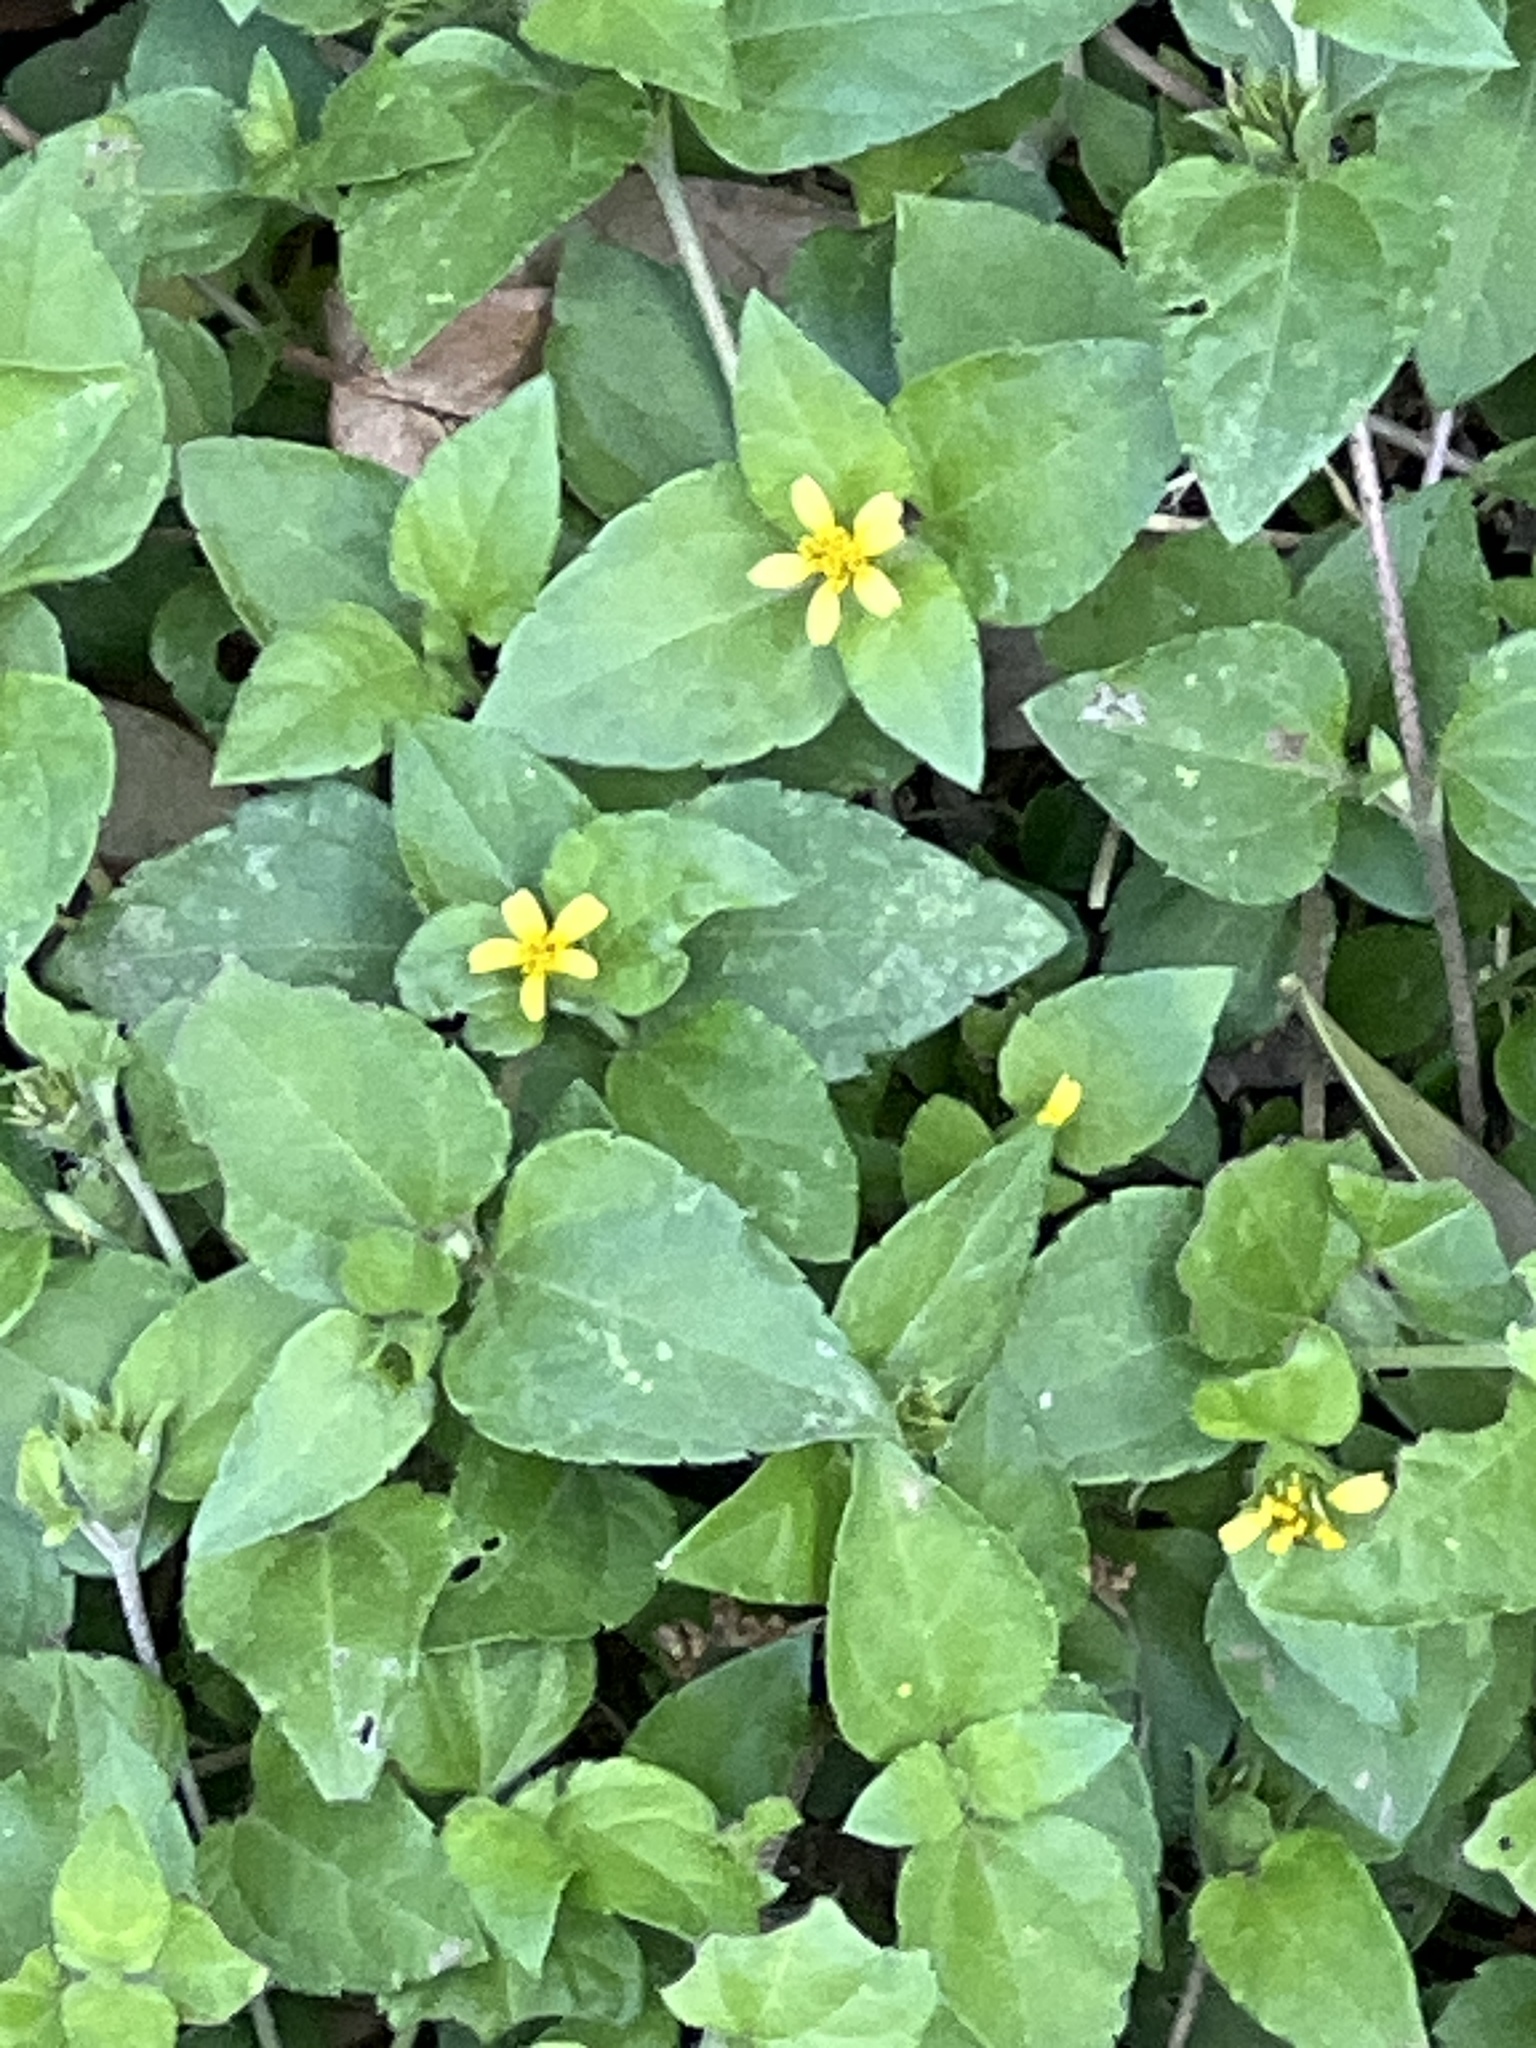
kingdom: Plantae
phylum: Tracheophyta
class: Magnoliopsida
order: Asterales
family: Asteraceae
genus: Calyptocarpus
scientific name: Calyptocarpus vialis
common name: Straggler daisy
